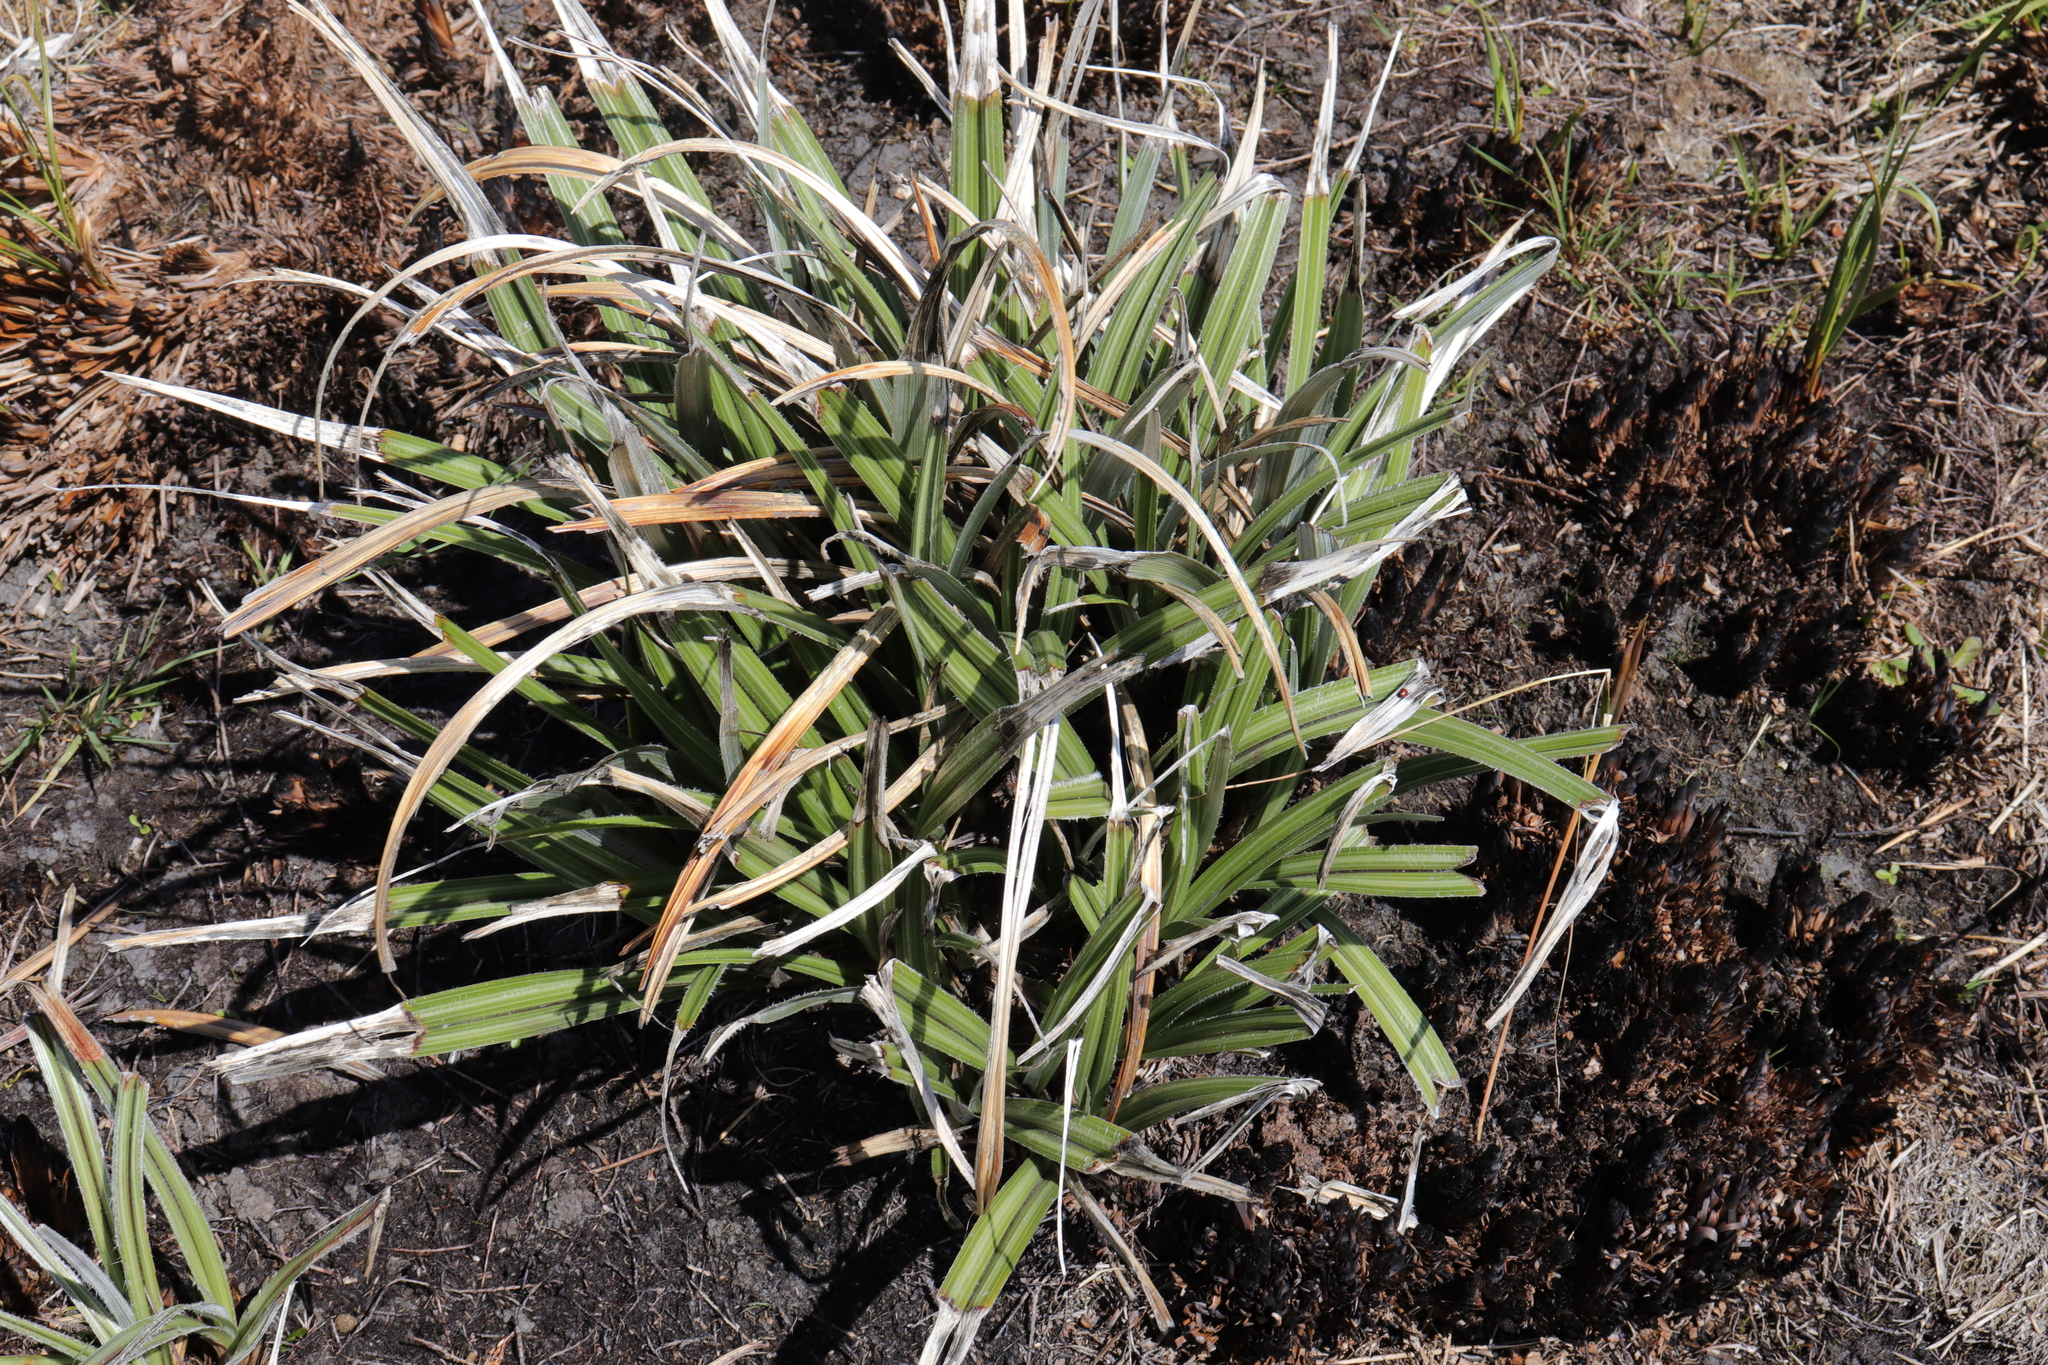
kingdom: Plantae
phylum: Tracheophyta
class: Liliopsida
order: Asparagales
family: Asteliaceae
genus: Astelia
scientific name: Astelia nervosa
